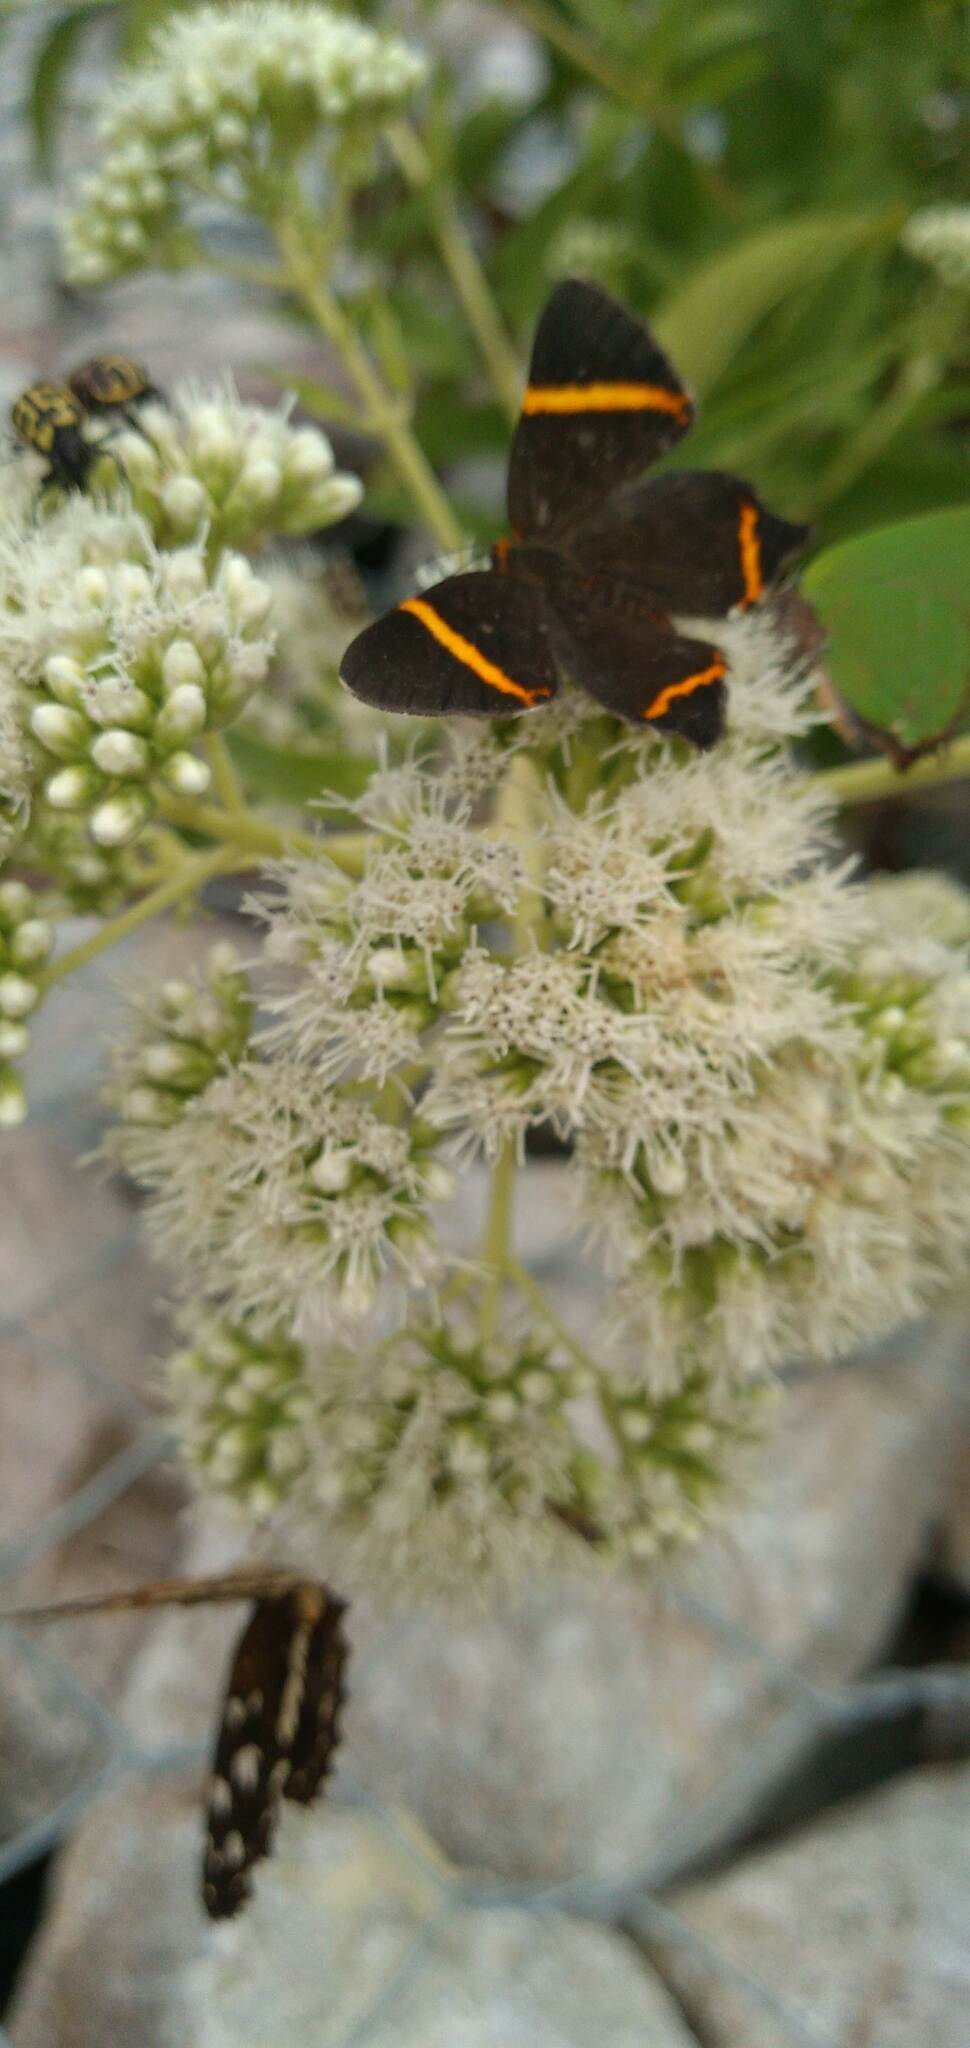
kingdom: Animalia
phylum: Arthropoda
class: Insecta
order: Lepidoptera
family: Riodinidae
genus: Riodina
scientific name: Riodina lysippoides
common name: Little dancer metalmark
